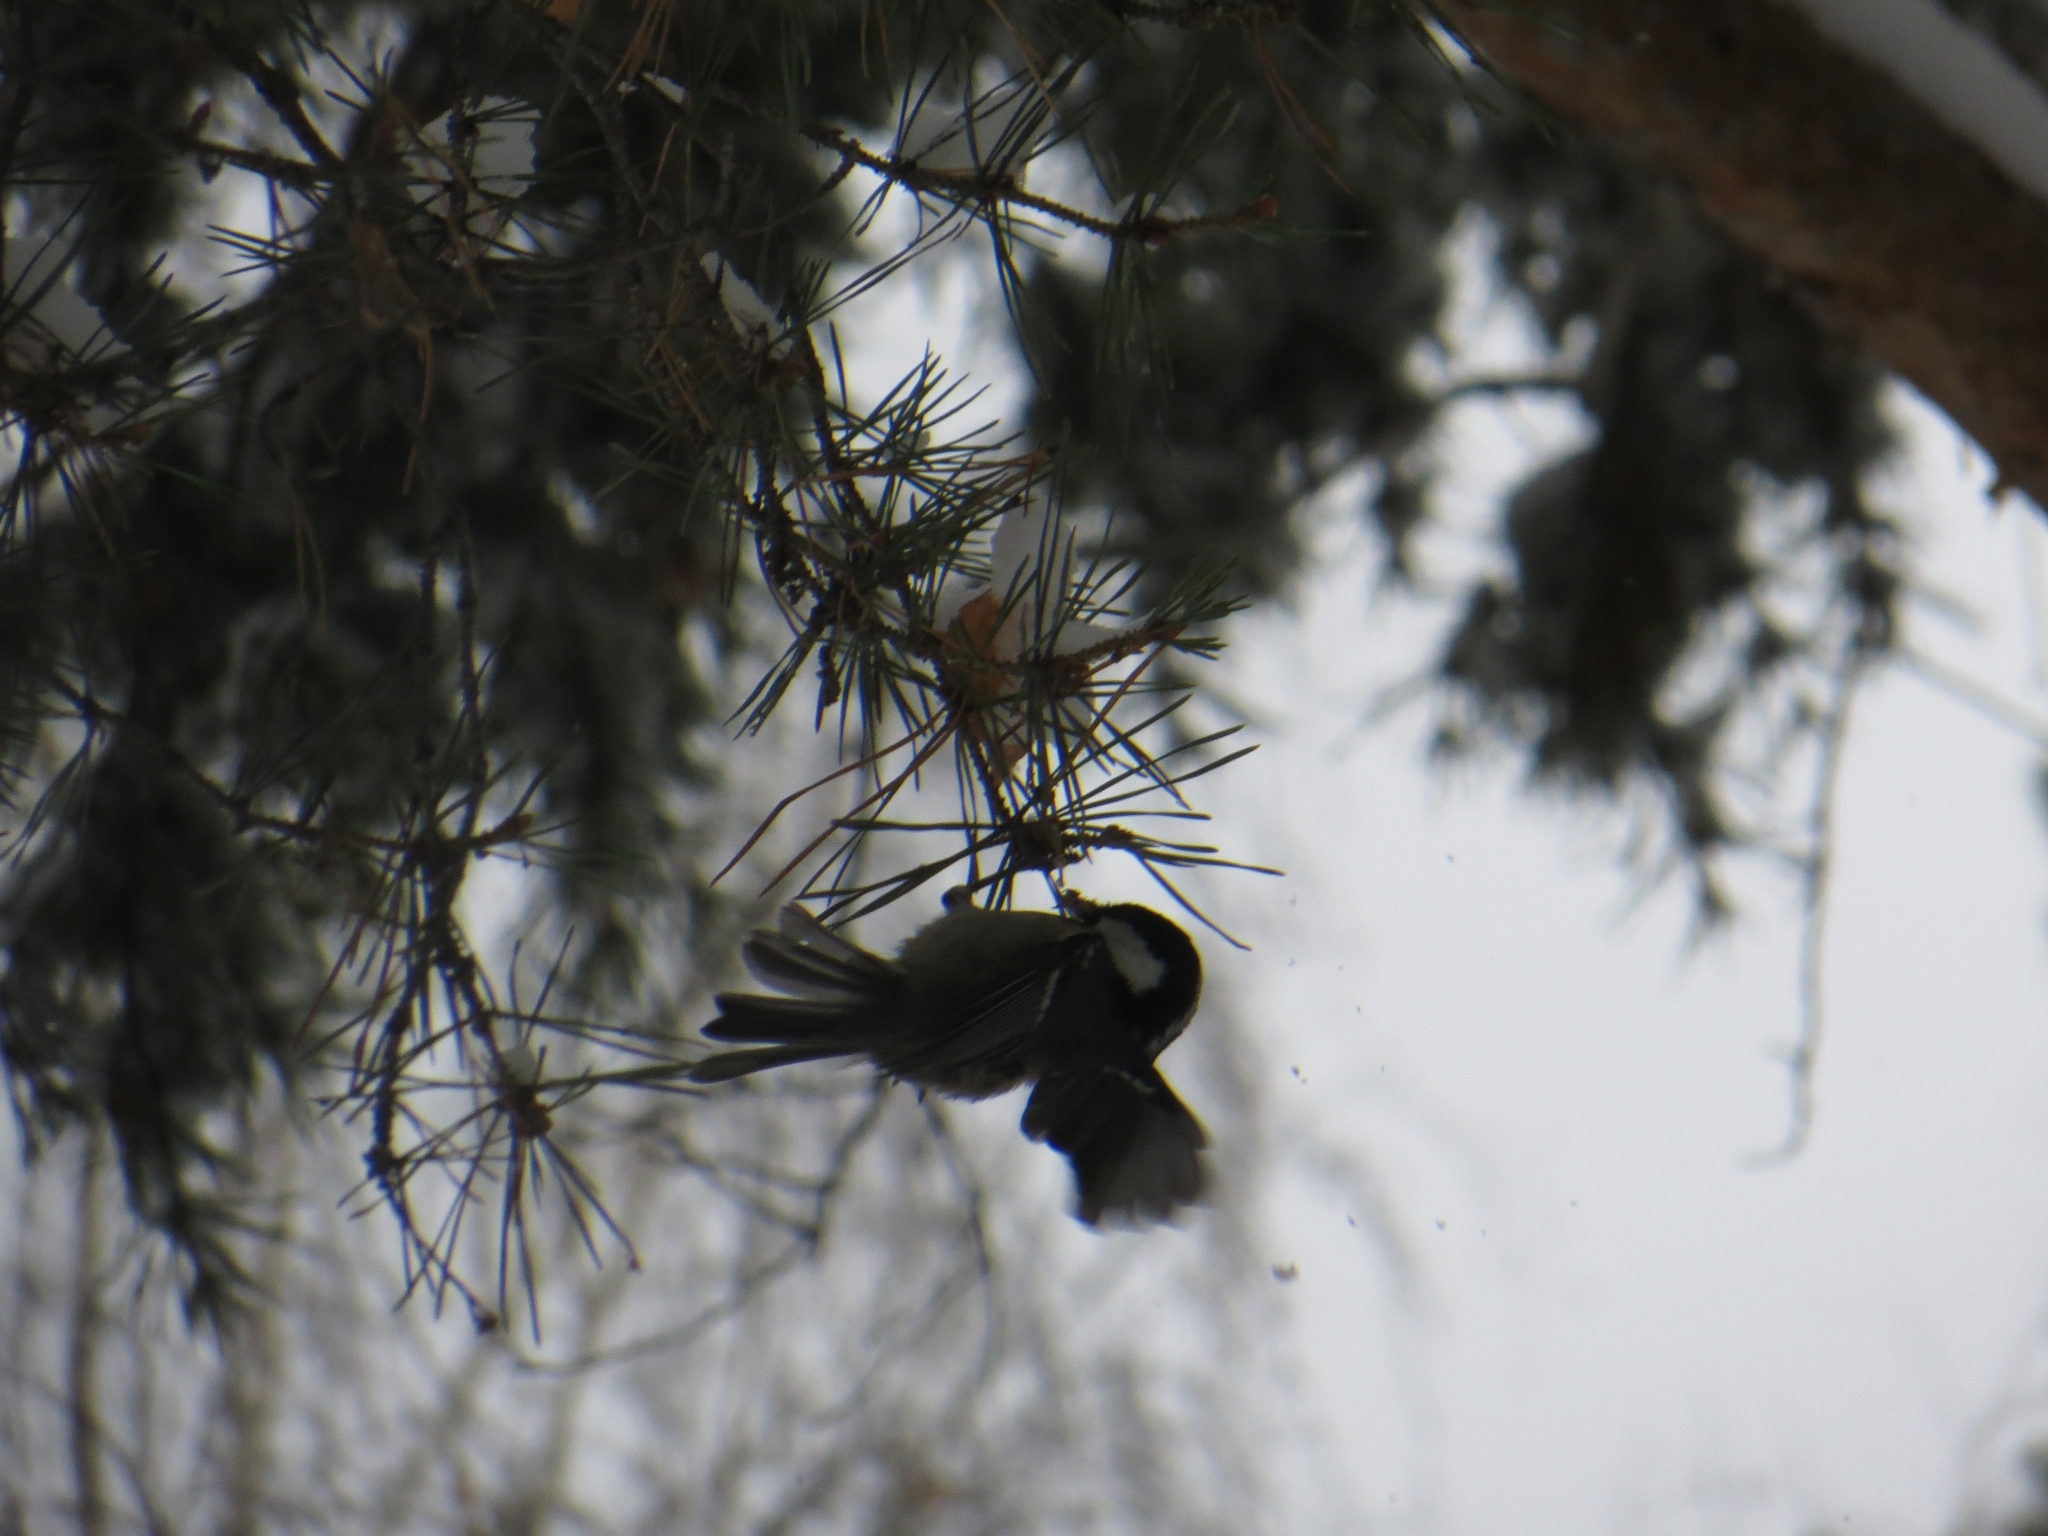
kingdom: Animalia
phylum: Chordata
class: Aves
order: Passeriformes
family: Paridae
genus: Periparus
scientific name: Periparus ater
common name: Coal tit
